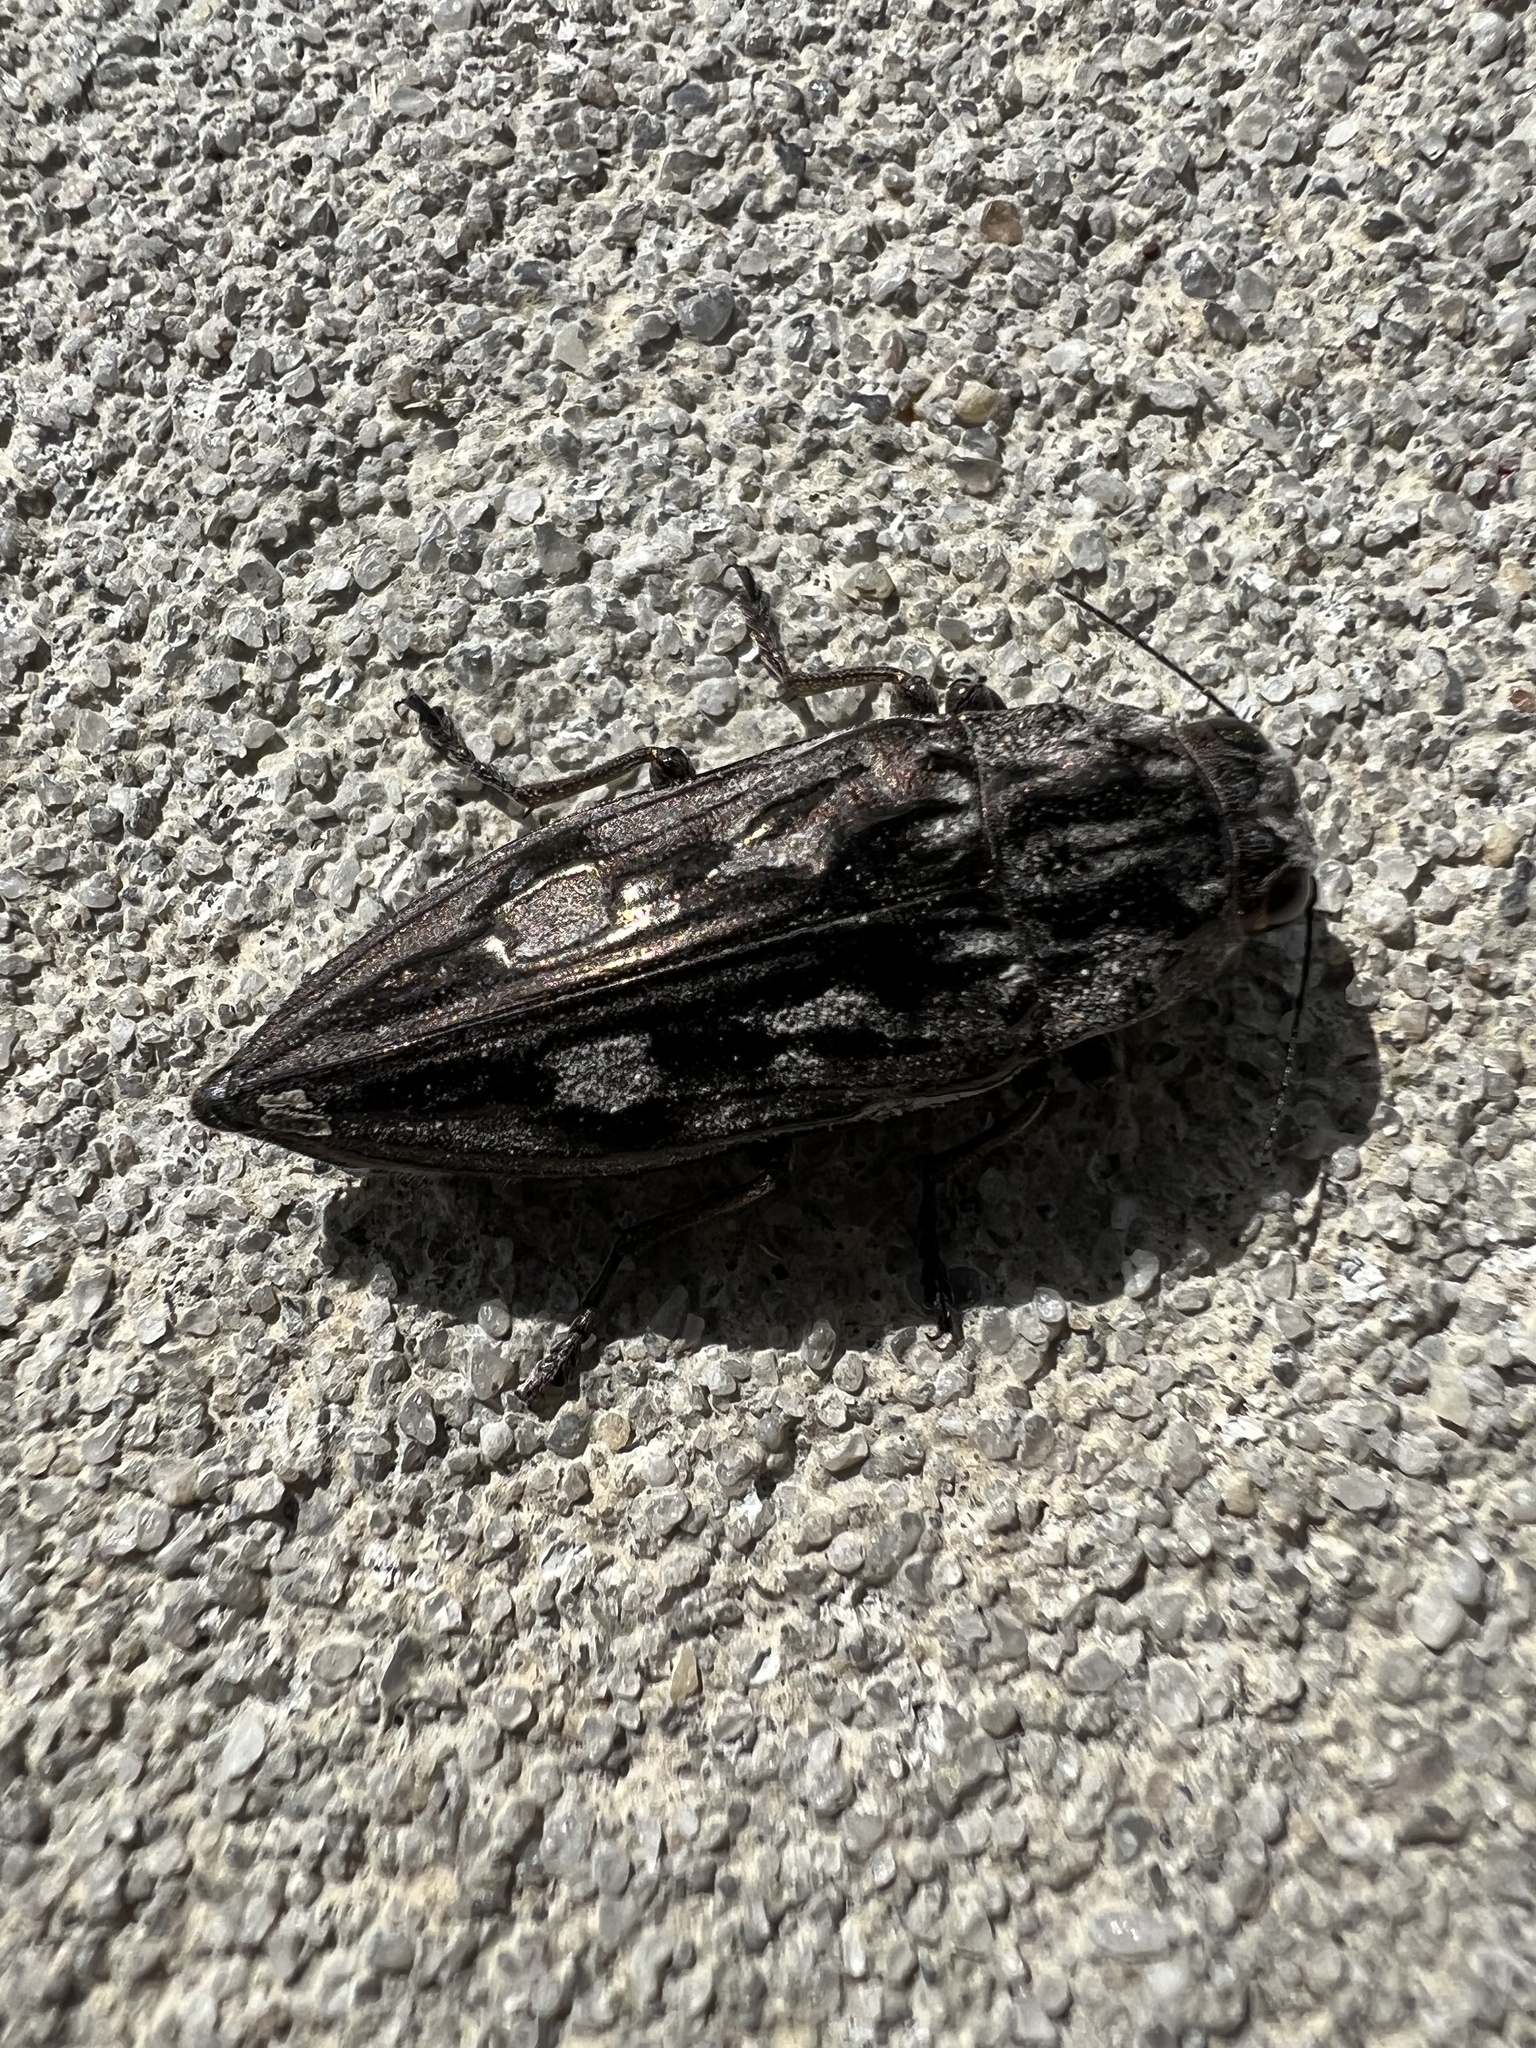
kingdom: Animalia
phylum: Arthropoda
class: Insecta
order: Coleoptera
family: Buprestidae
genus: Chalcophora
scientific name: Chalcophora virginiensis
